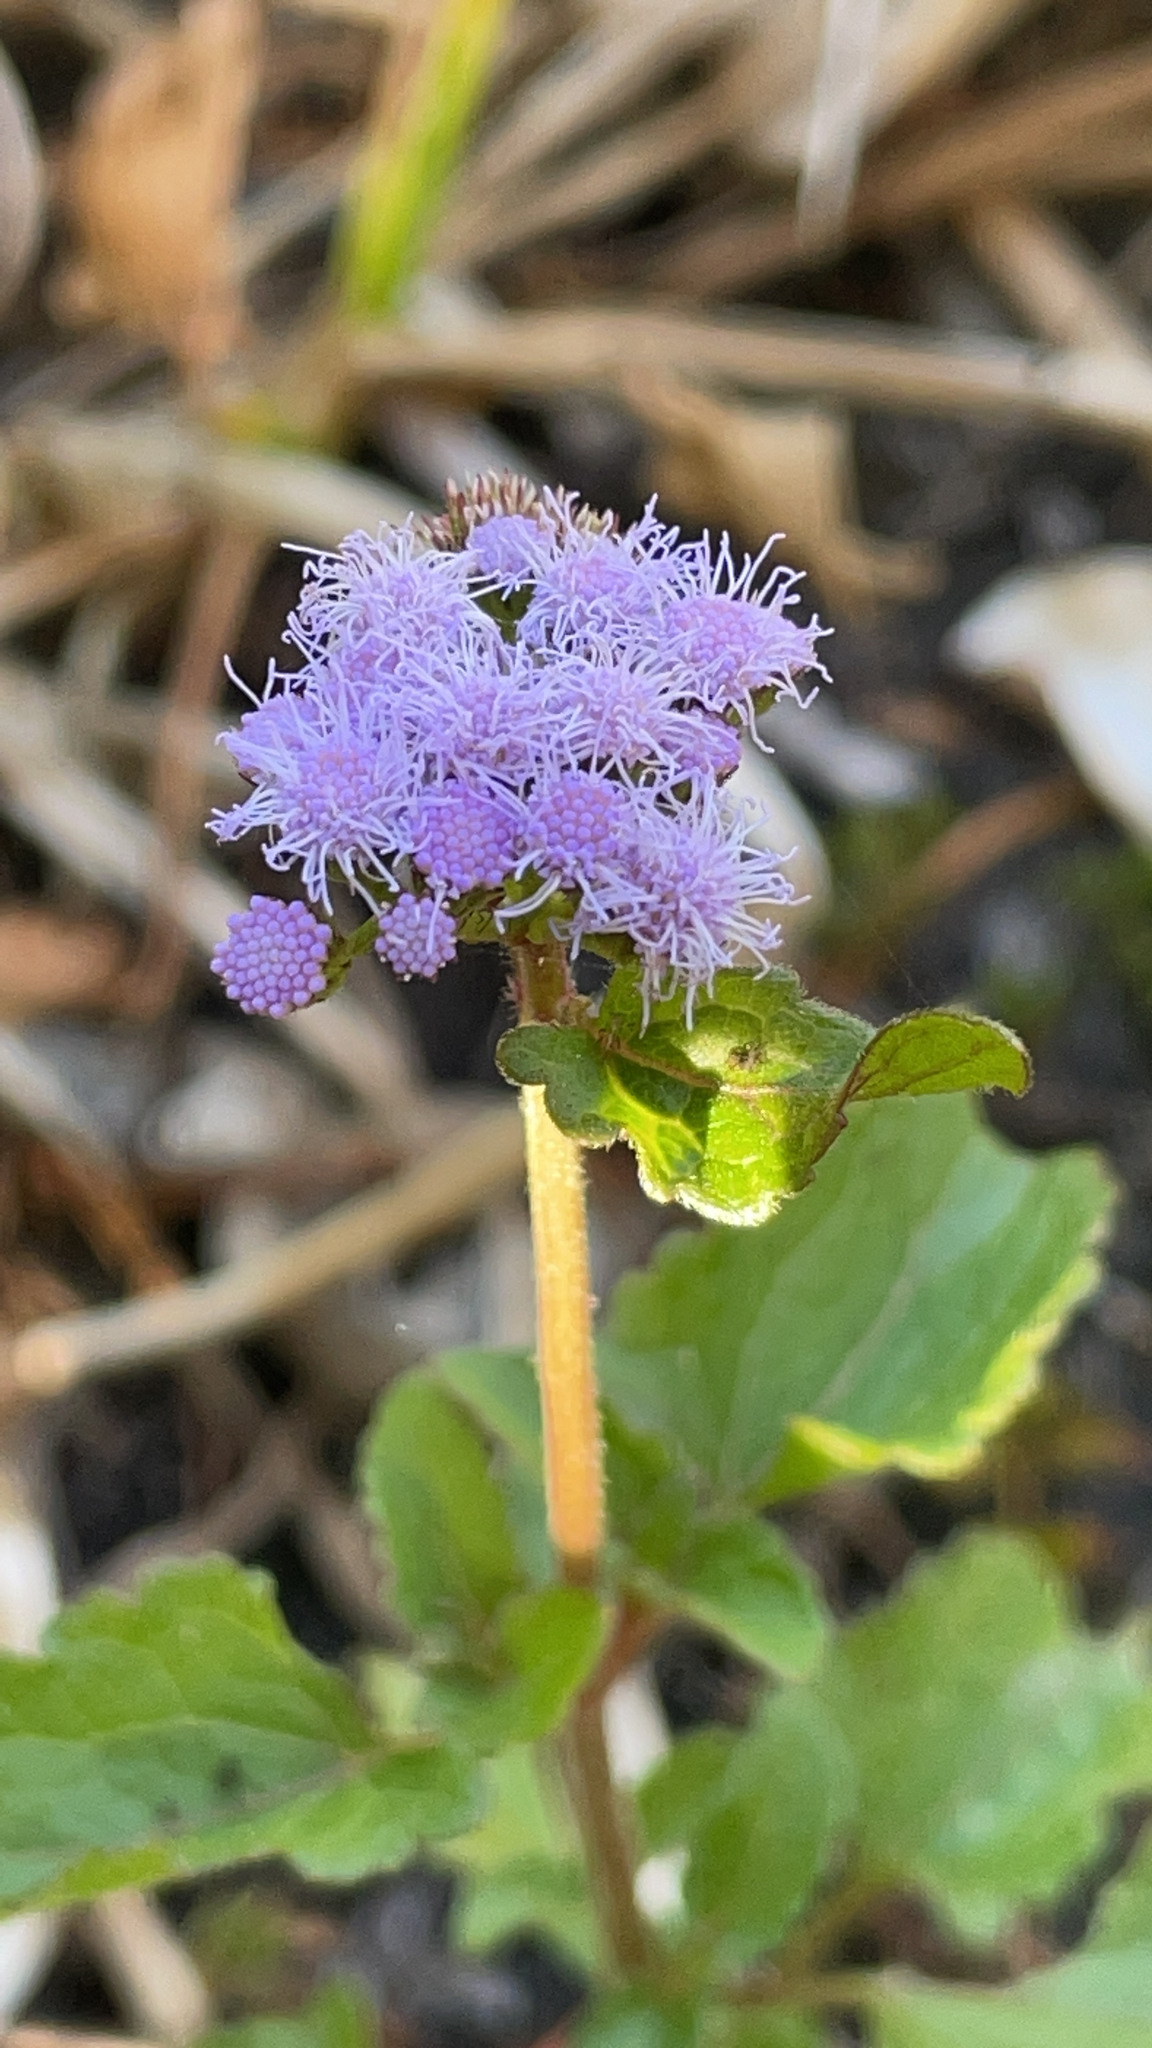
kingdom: Plantae
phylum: Tracheophyta
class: Magnoliopsida
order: Asterales
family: Asteraceae
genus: Conoclinium
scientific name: Conoclinium coelestinum
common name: Blue mistflower
